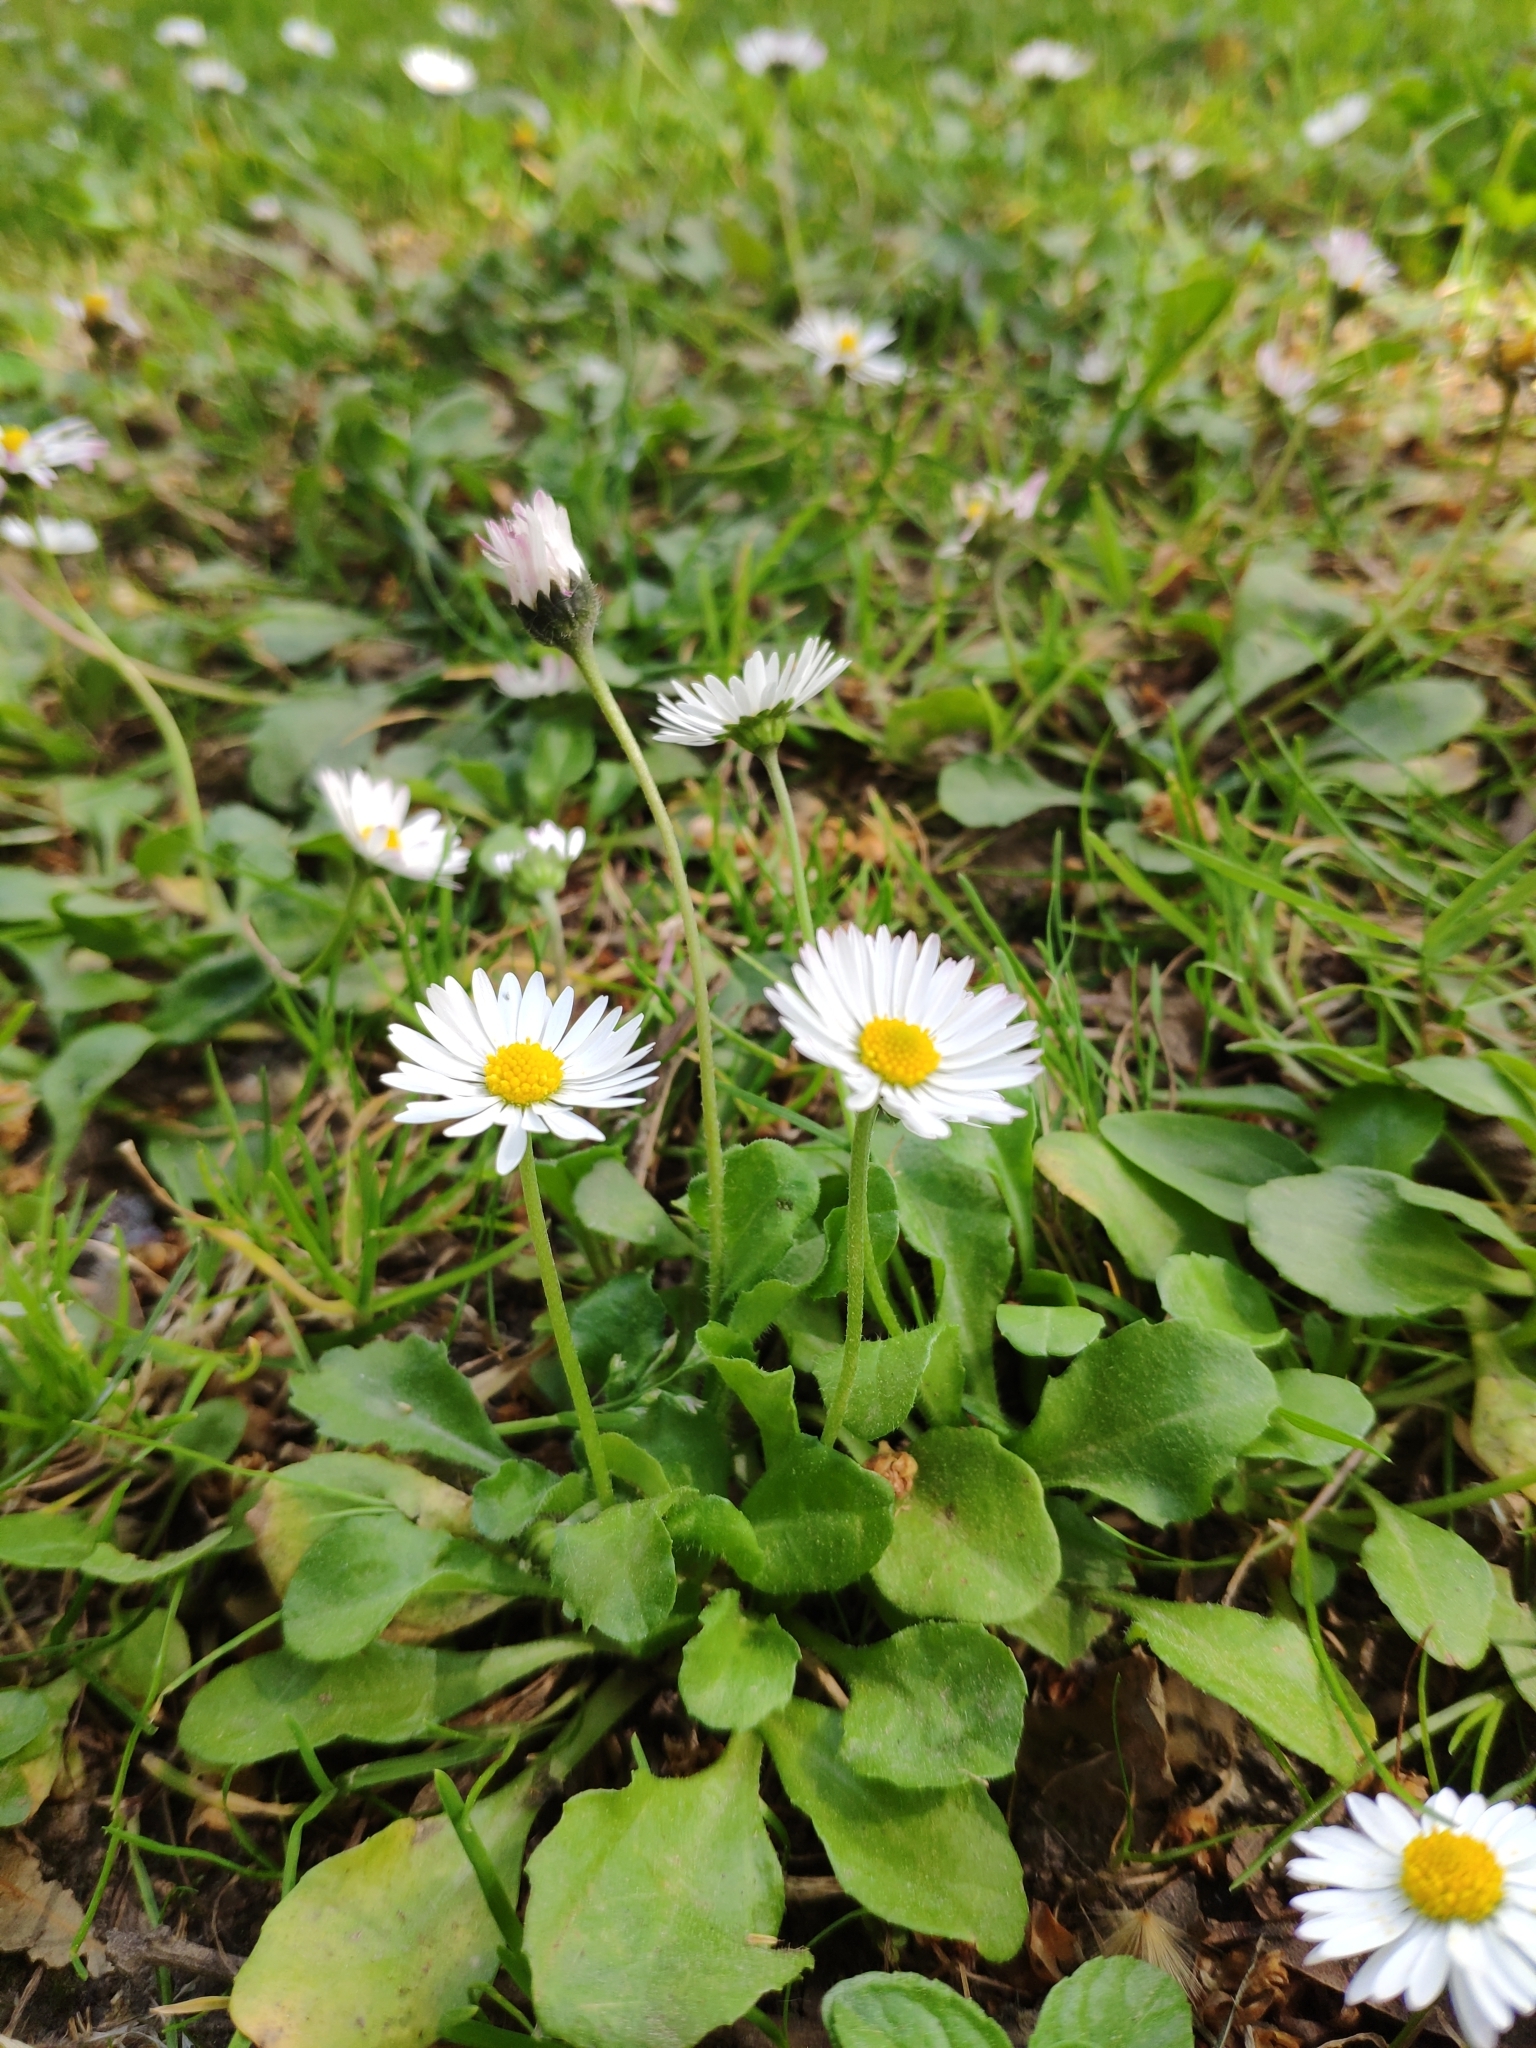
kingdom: Plantae
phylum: Tracheophyta
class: Magnoliopsida
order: Asterales
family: Asteraceae
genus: Bellis
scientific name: Bellis perennis
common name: Lawndaisy
